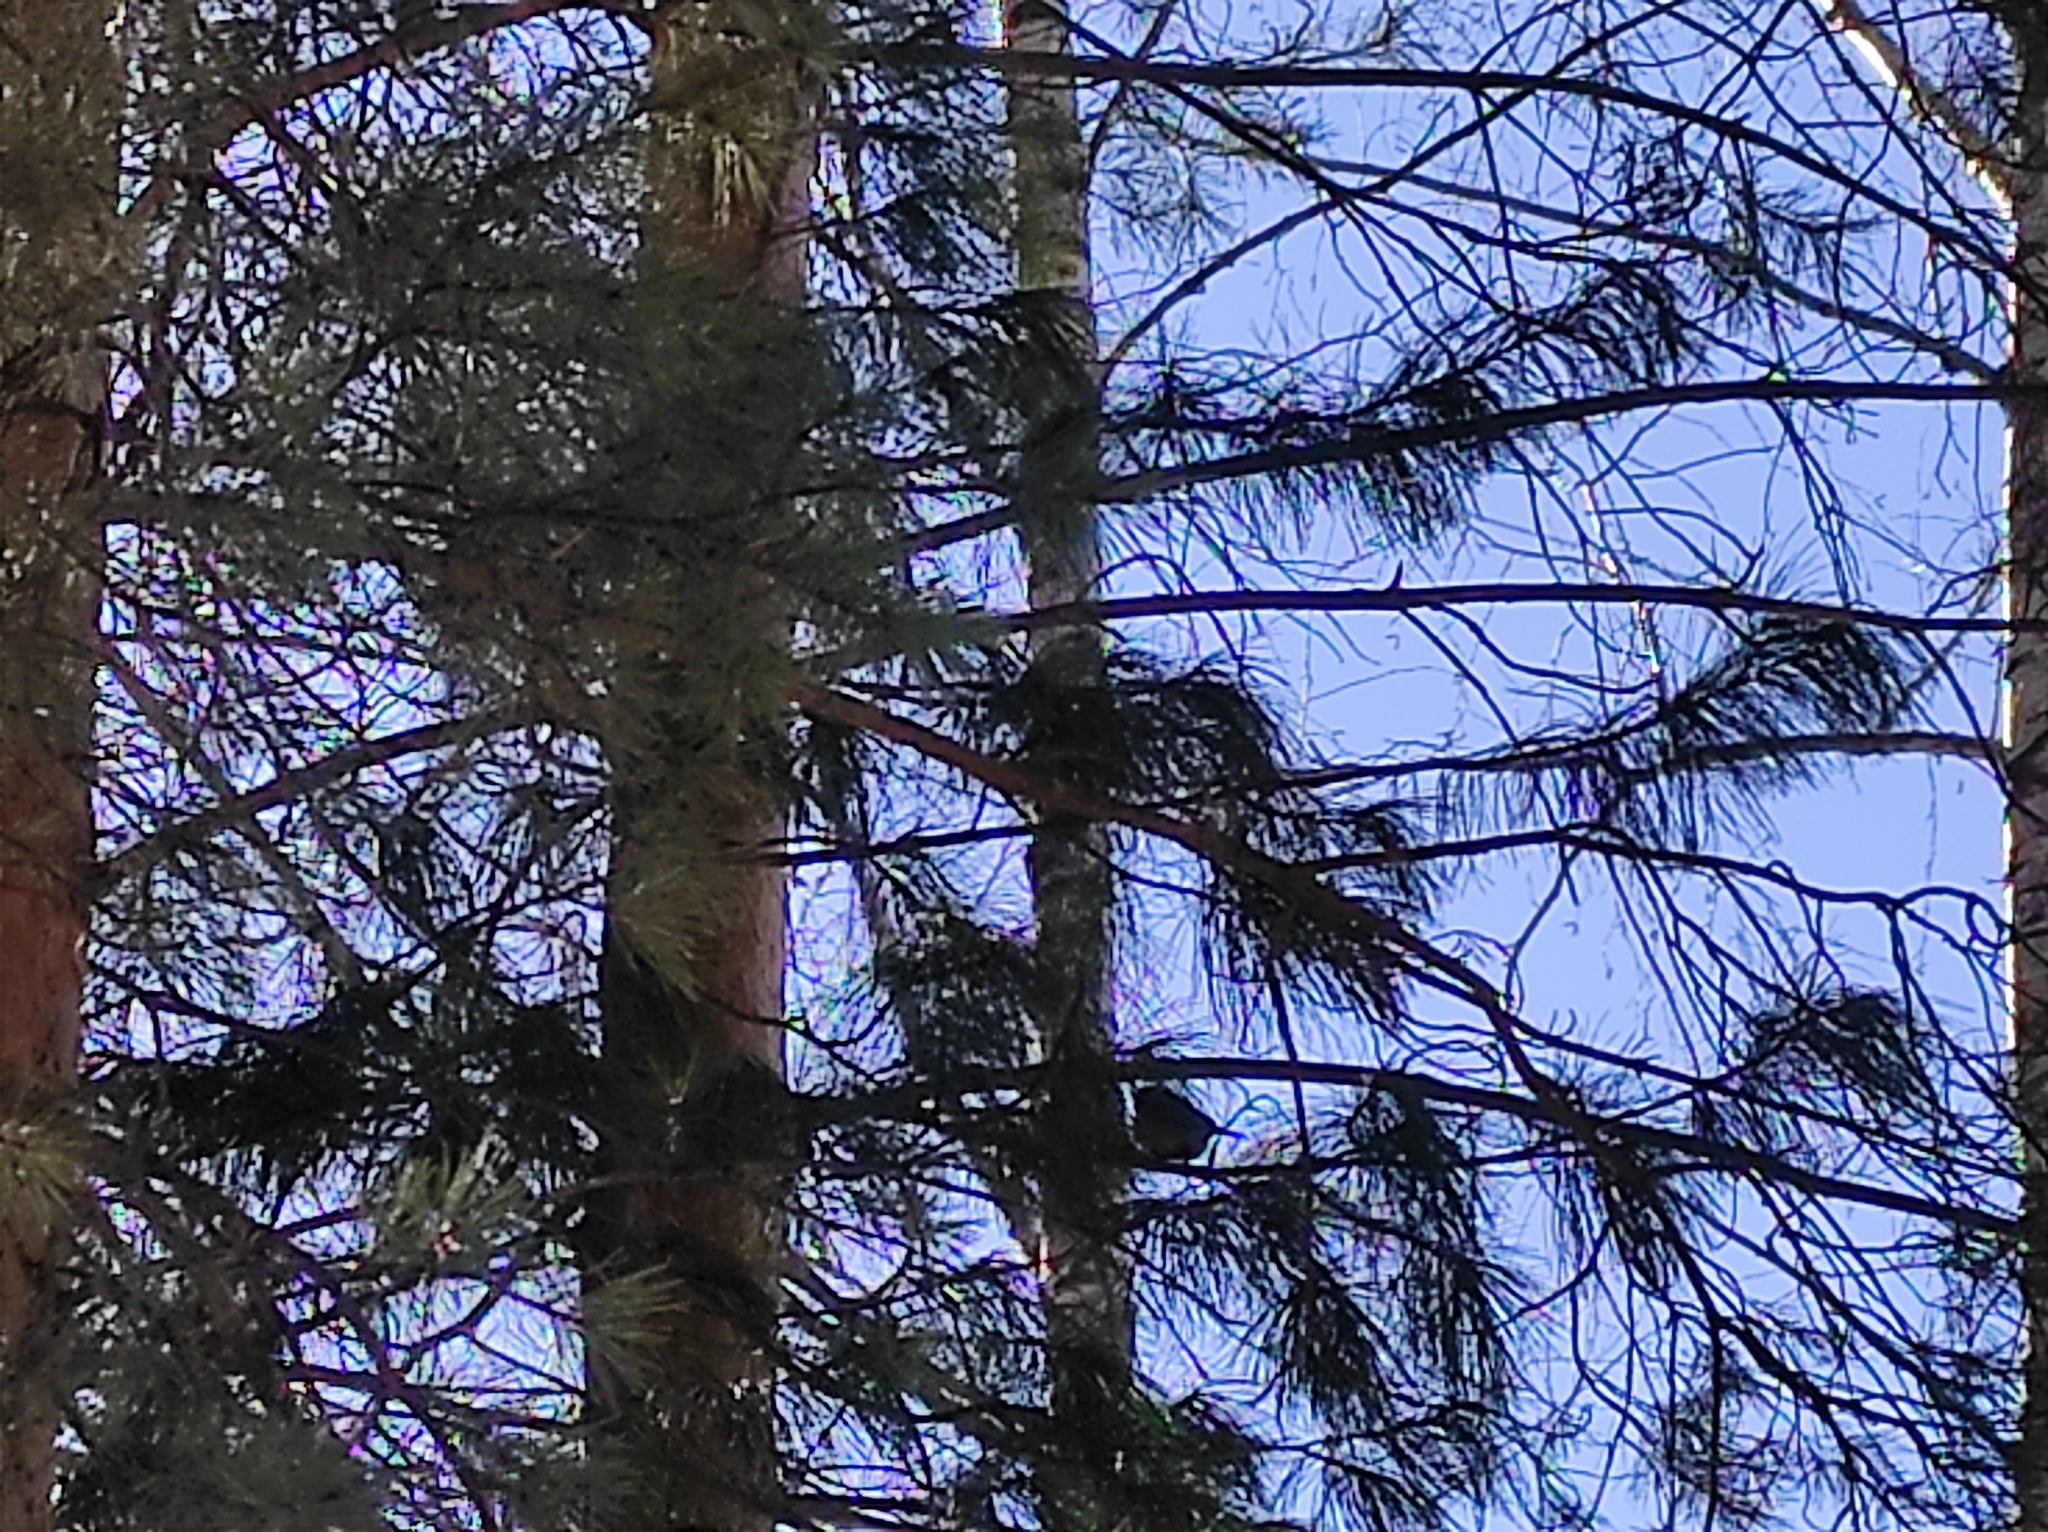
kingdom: Animalia
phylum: Chordata
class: Aves
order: Passeriformes
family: Paridae
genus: Parus
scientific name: Parus major
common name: Great tit
